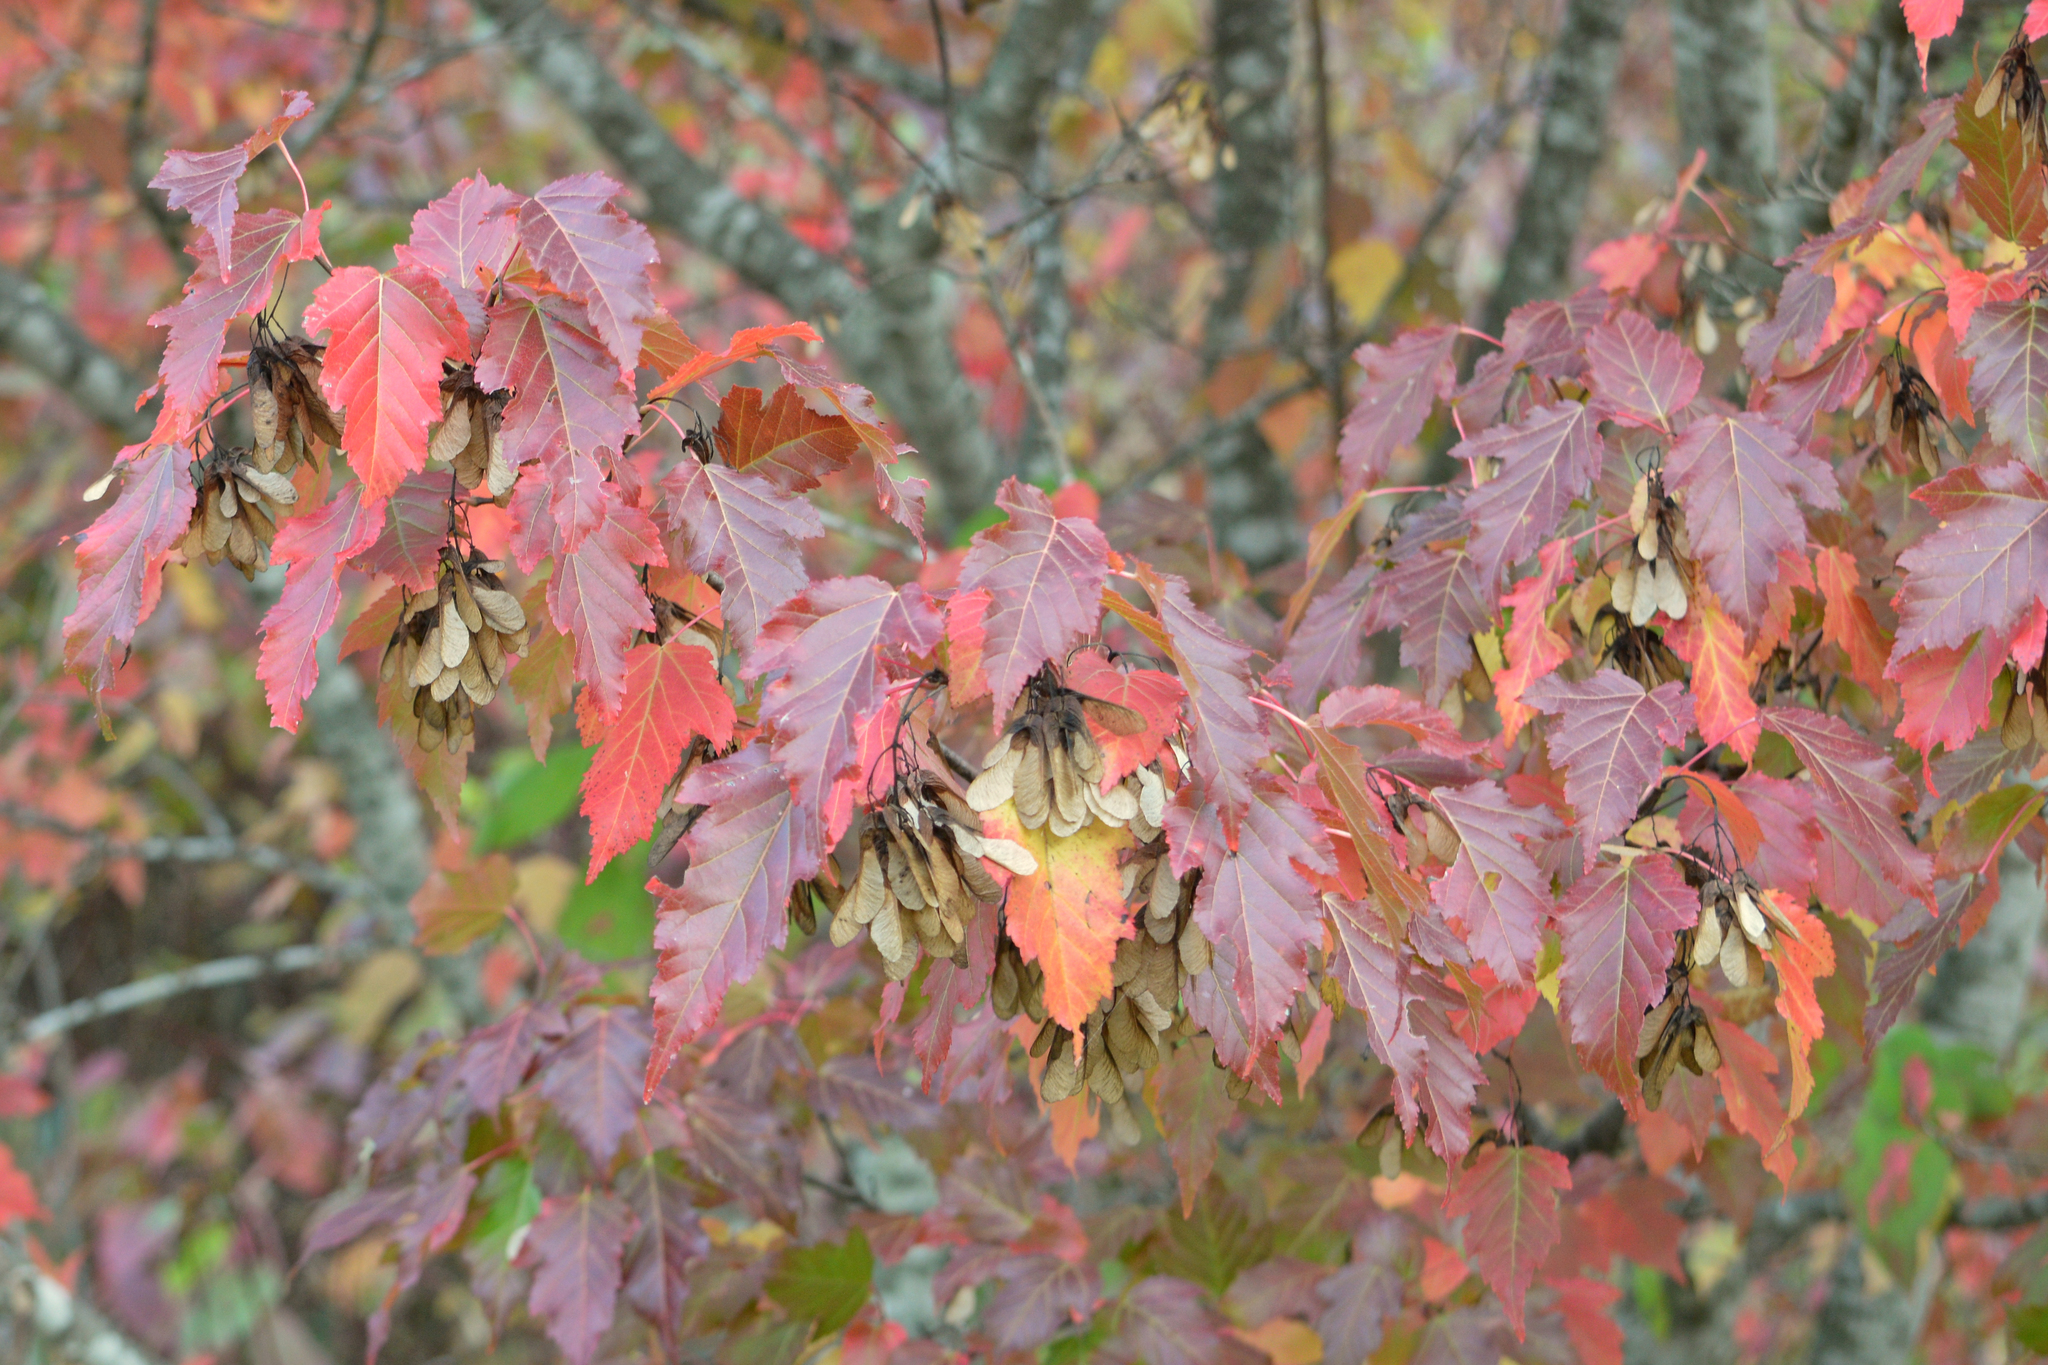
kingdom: Plantae
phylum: Tracheophyta
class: Magnoliopsida
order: Sapindales
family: Sapindaceae
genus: Acer
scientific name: Acer tataricum
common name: Tartar maple
